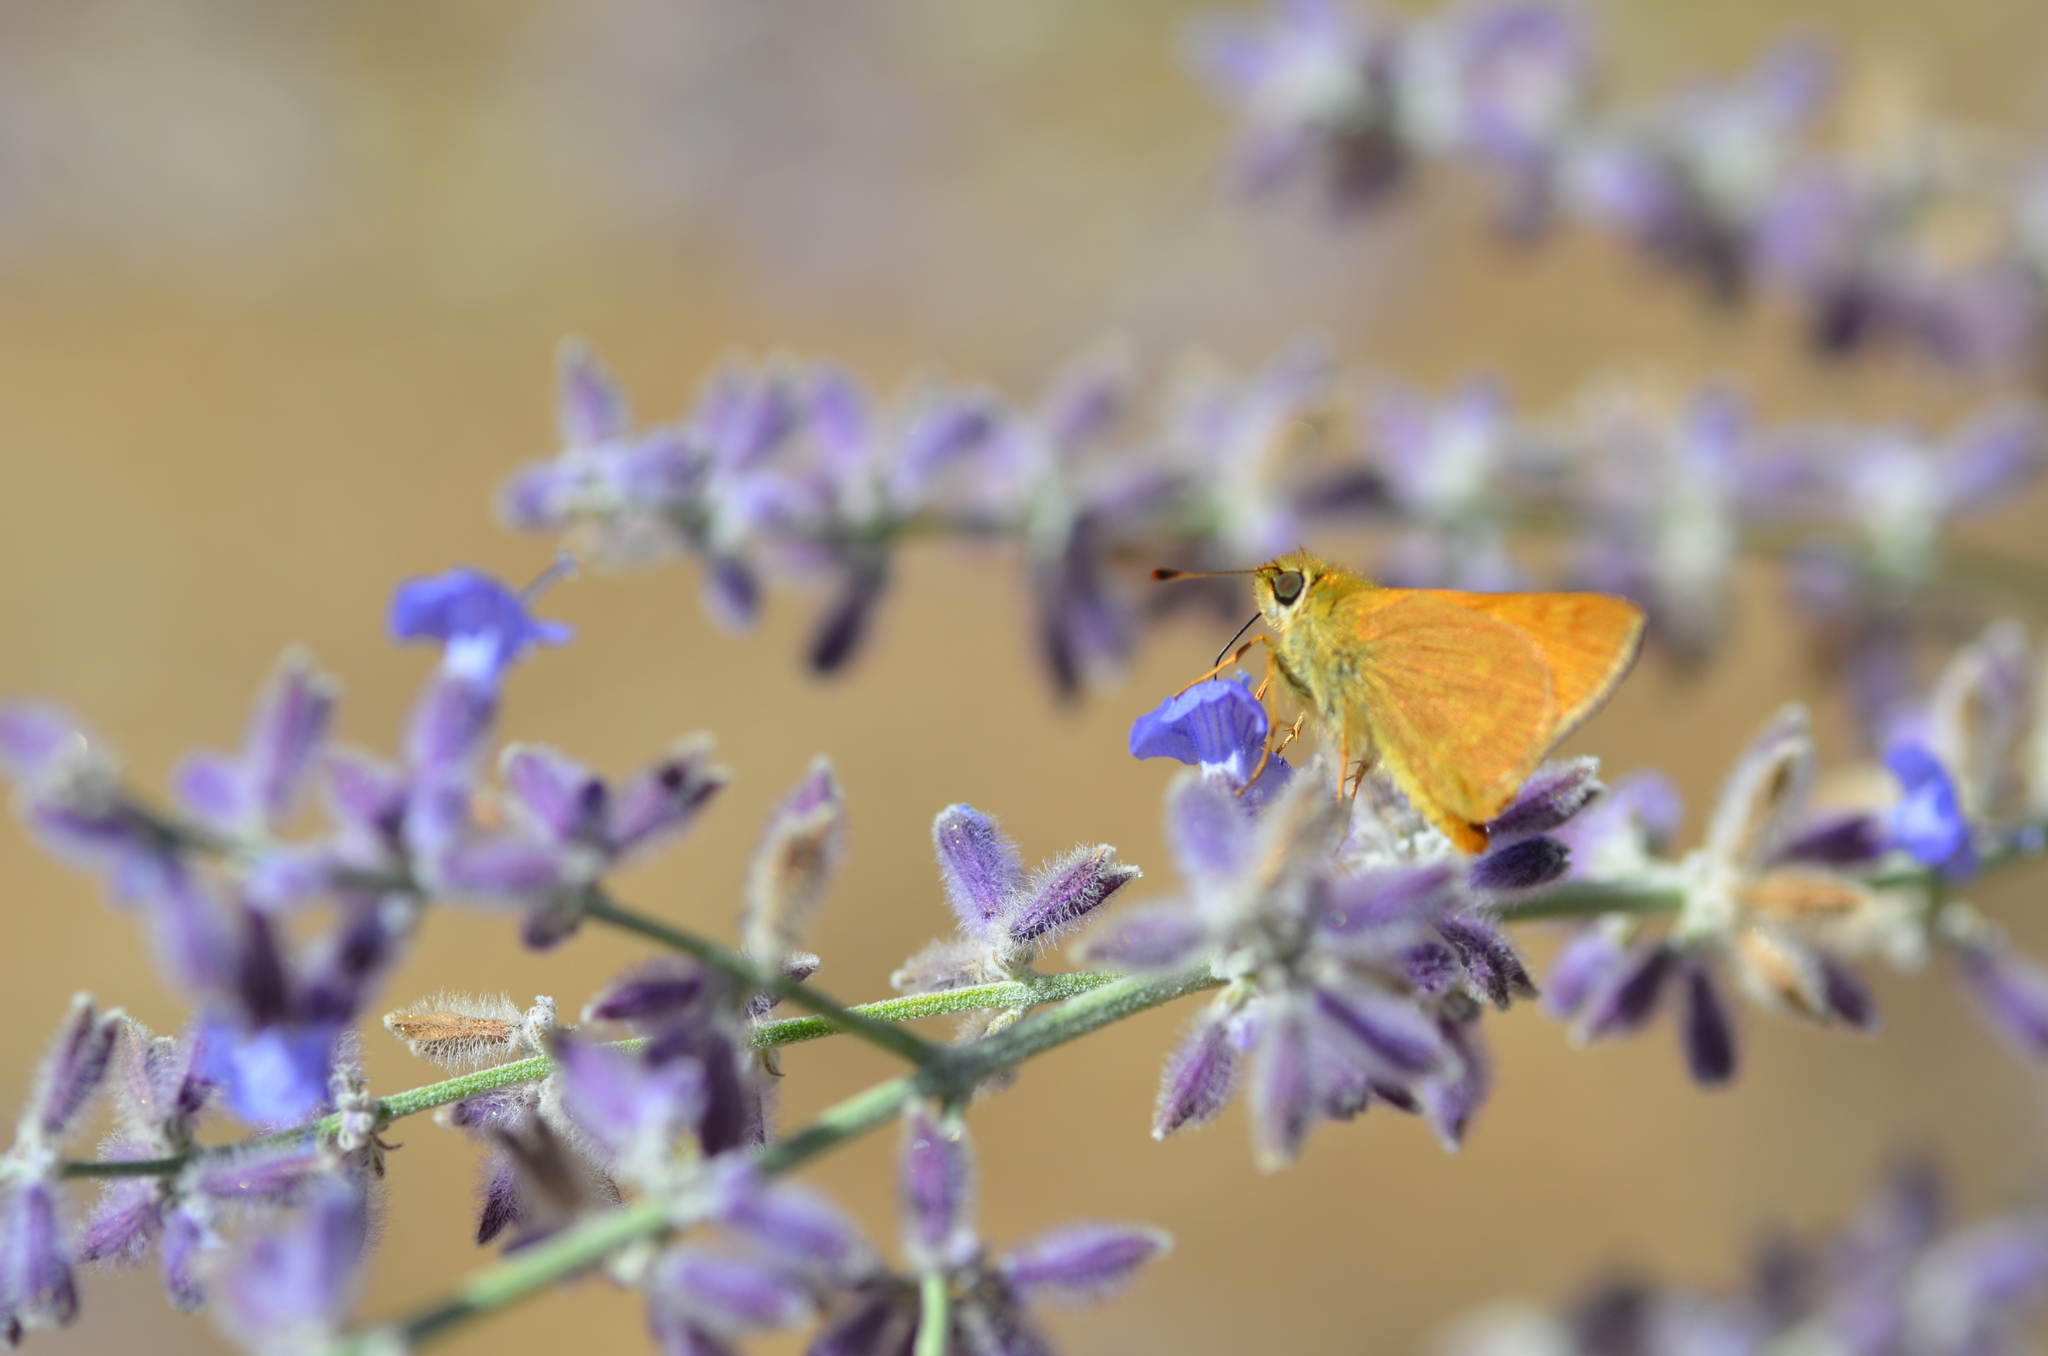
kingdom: Animalia
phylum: Arthropoda
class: Insecta
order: Lepidoptera
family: Hesperiidae
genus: Ochlodes
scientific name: Ochlodes sylvanoides
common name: Woodland skipper
